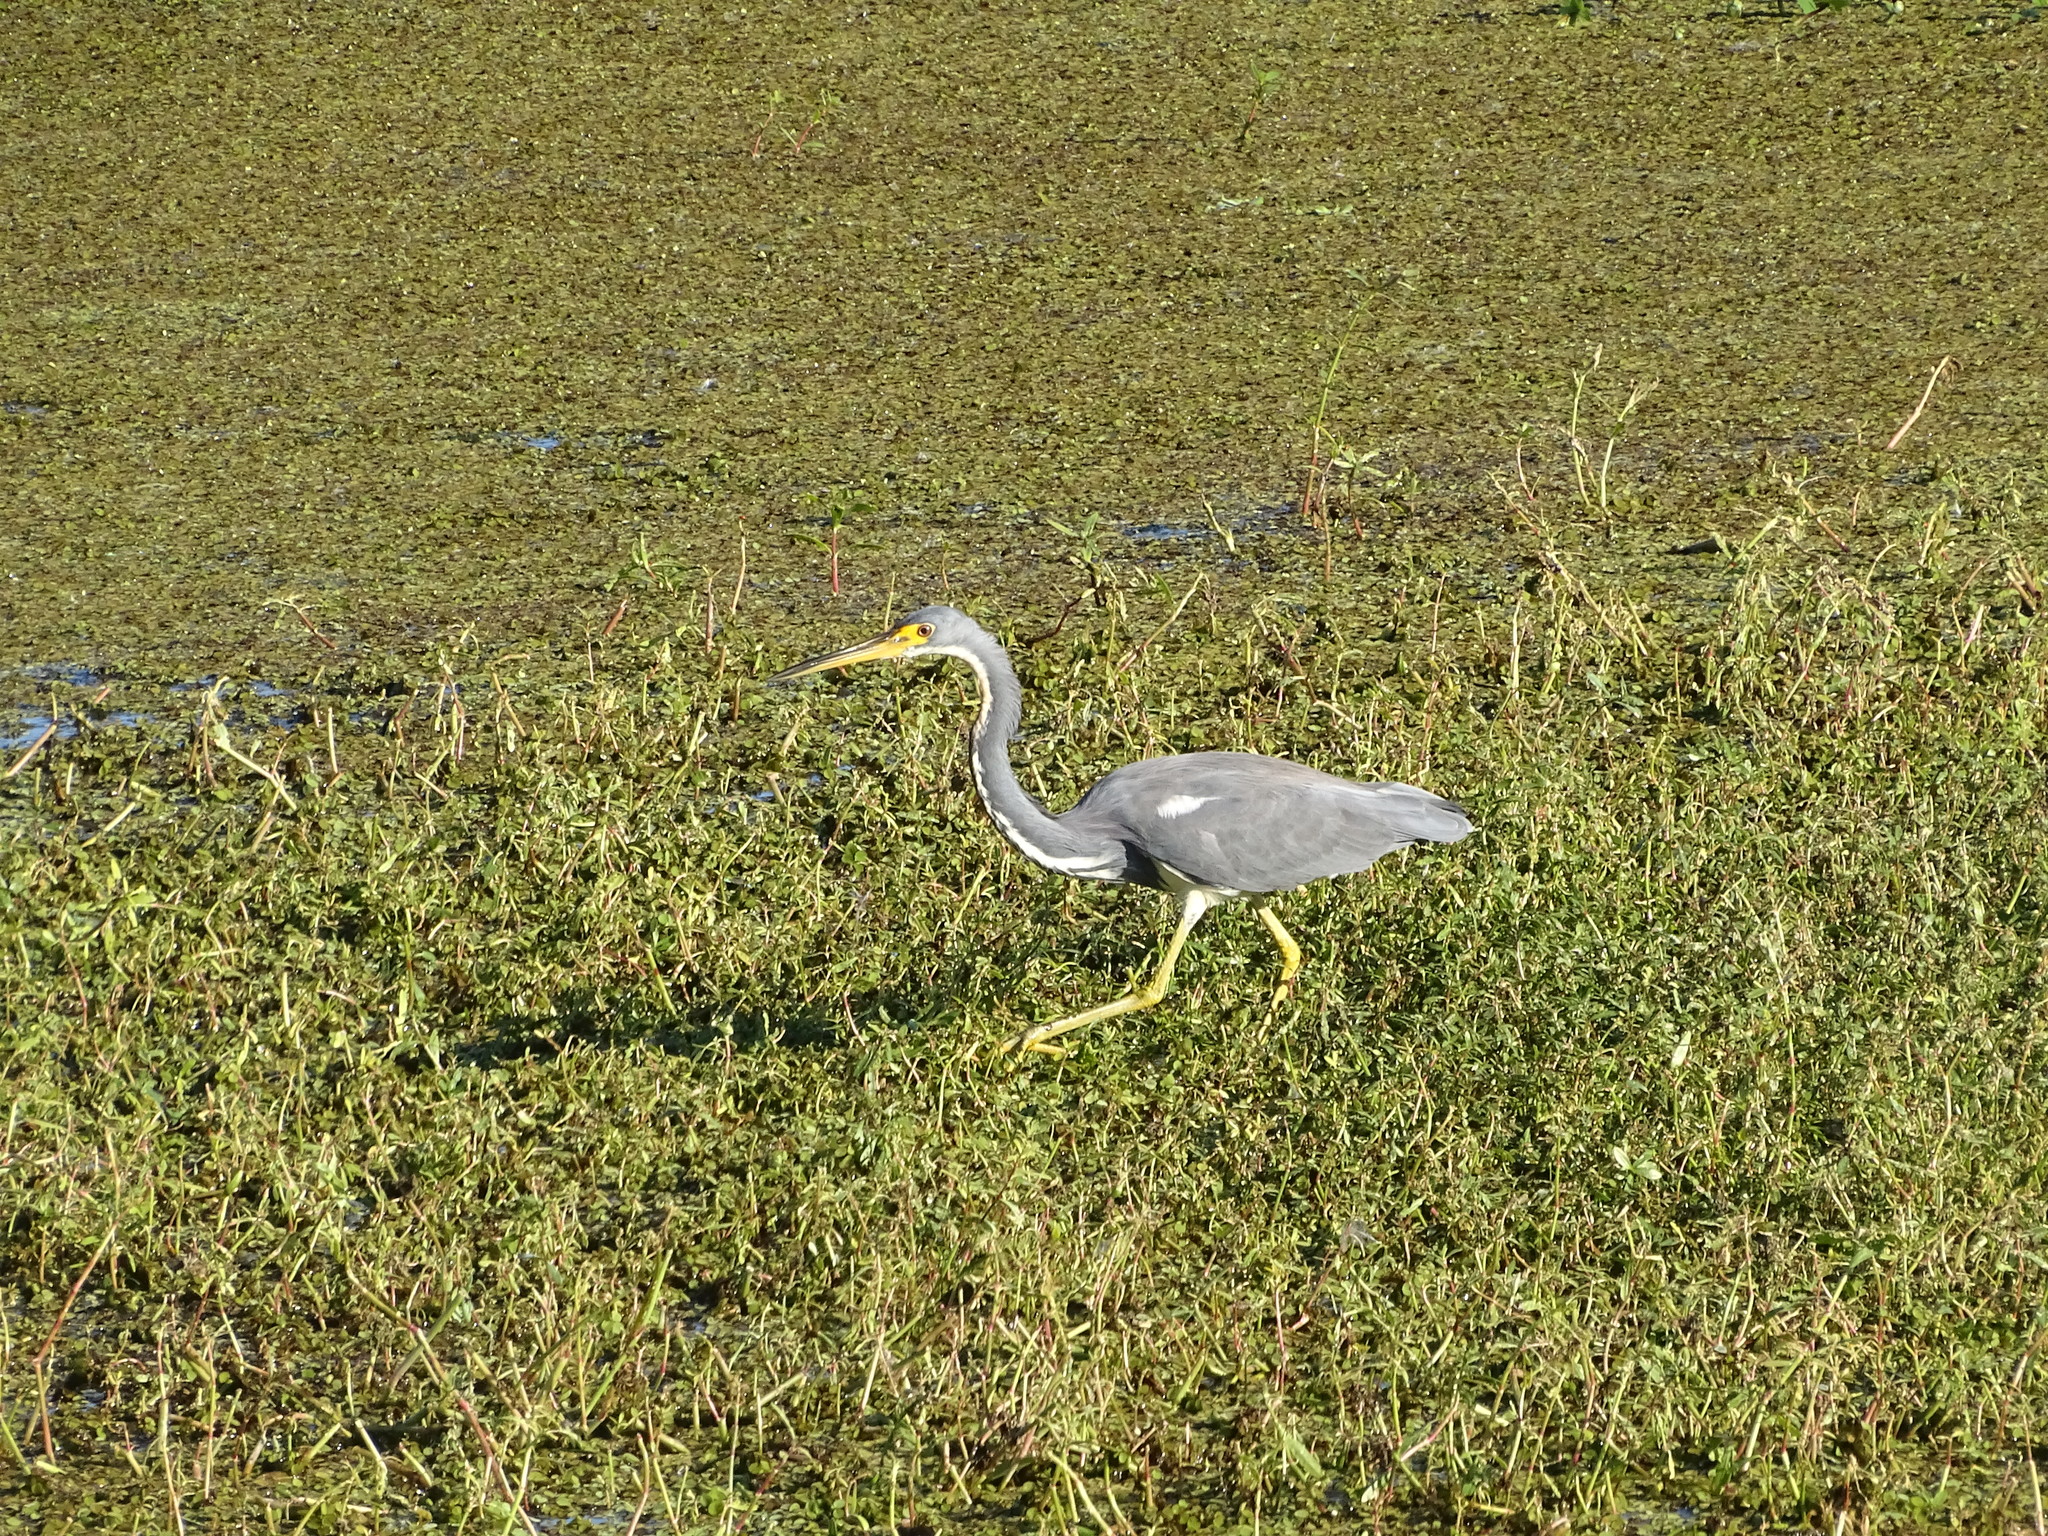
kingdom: Animalia
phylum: Chordata
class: Aves
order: Pelecaniformes
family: Ardeidae
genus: Egretta
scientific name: Egretta tricolor
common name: Tricolored heron
